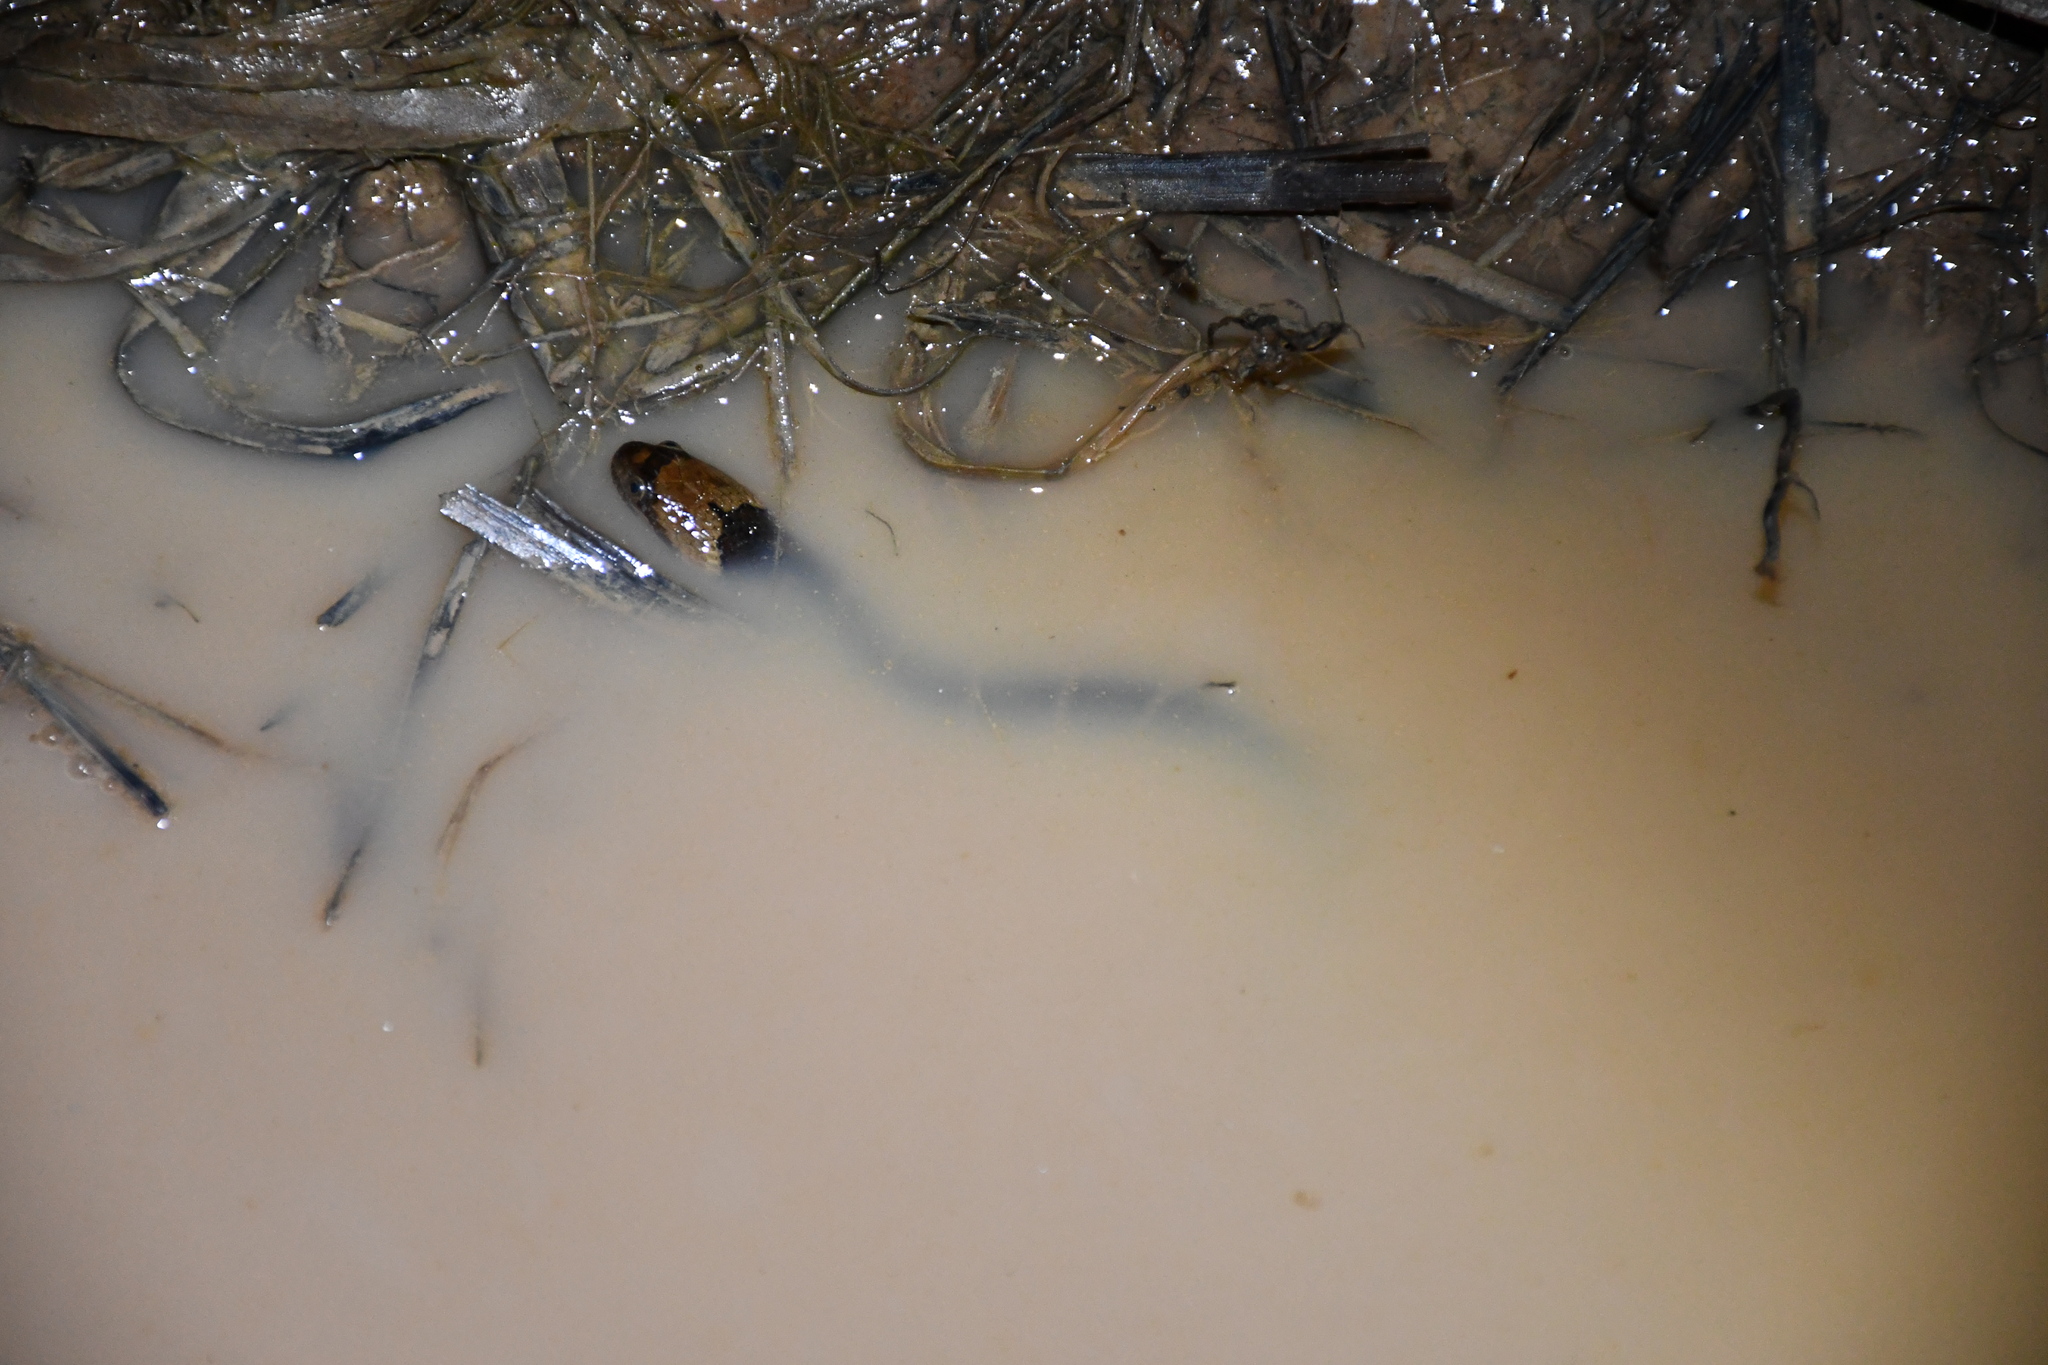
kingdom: Animalia
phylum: Chordata
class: Squamata
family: Colubridae
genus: Helicops
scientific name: Helicops angulatus
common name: Mountain keelback
